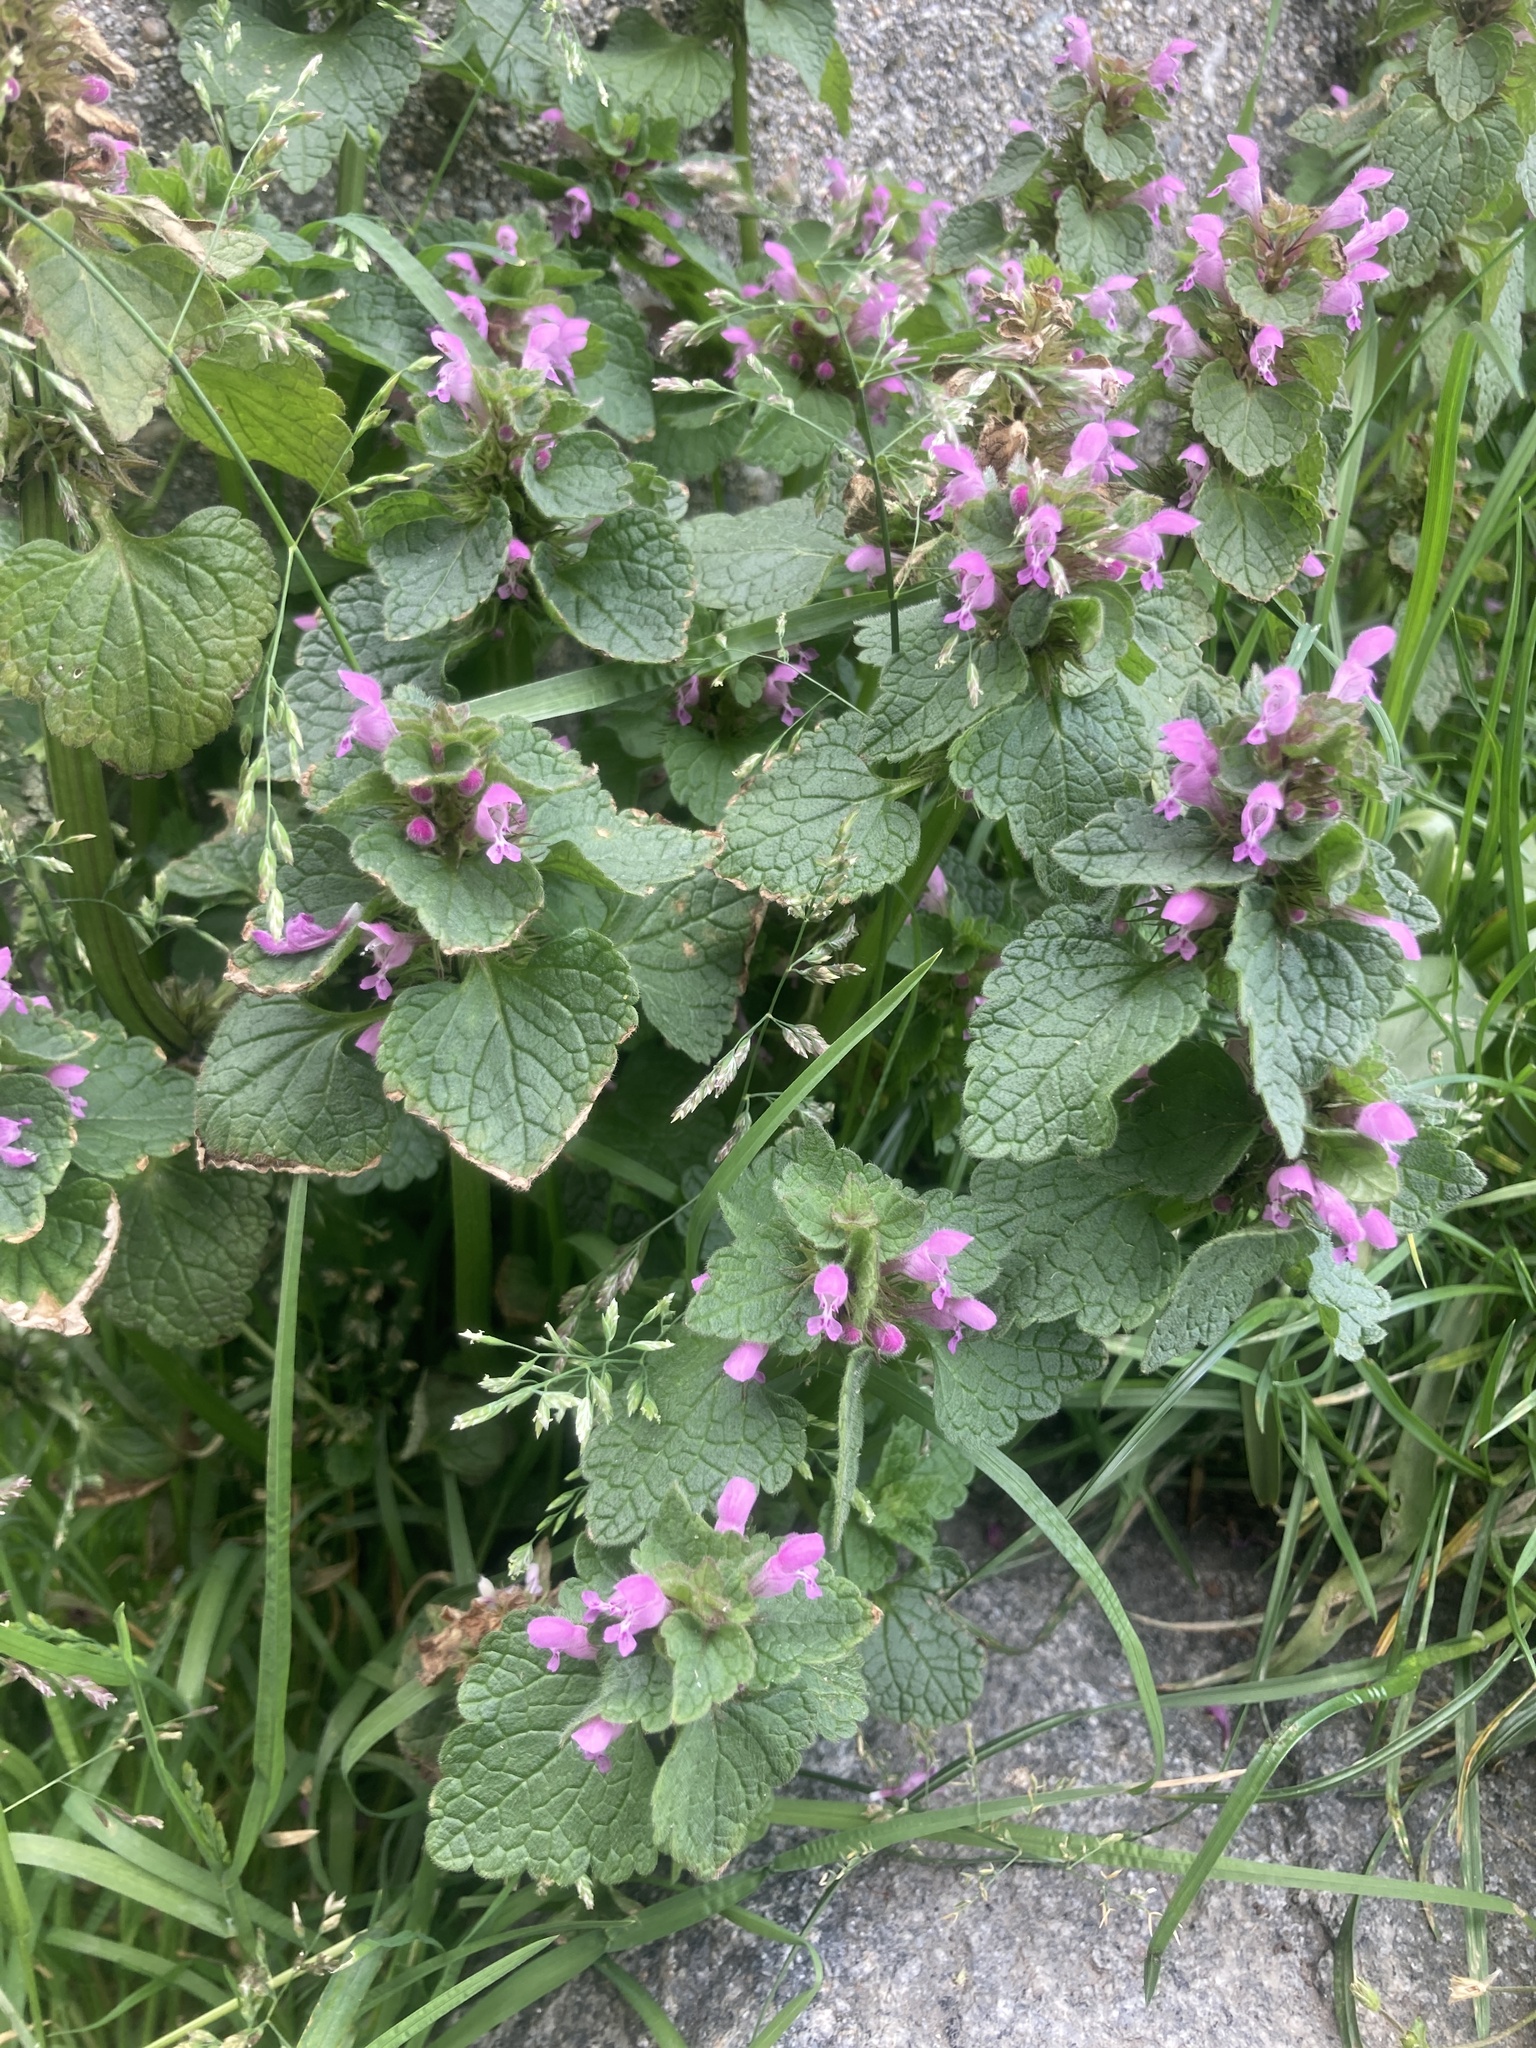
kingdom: Plantae
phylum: Tracheophyta
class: Magnoliopsida
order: Lamiales
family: Lamiaceae
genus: Lamium
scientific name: Lamium purpureum
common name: Red dead-nettle
